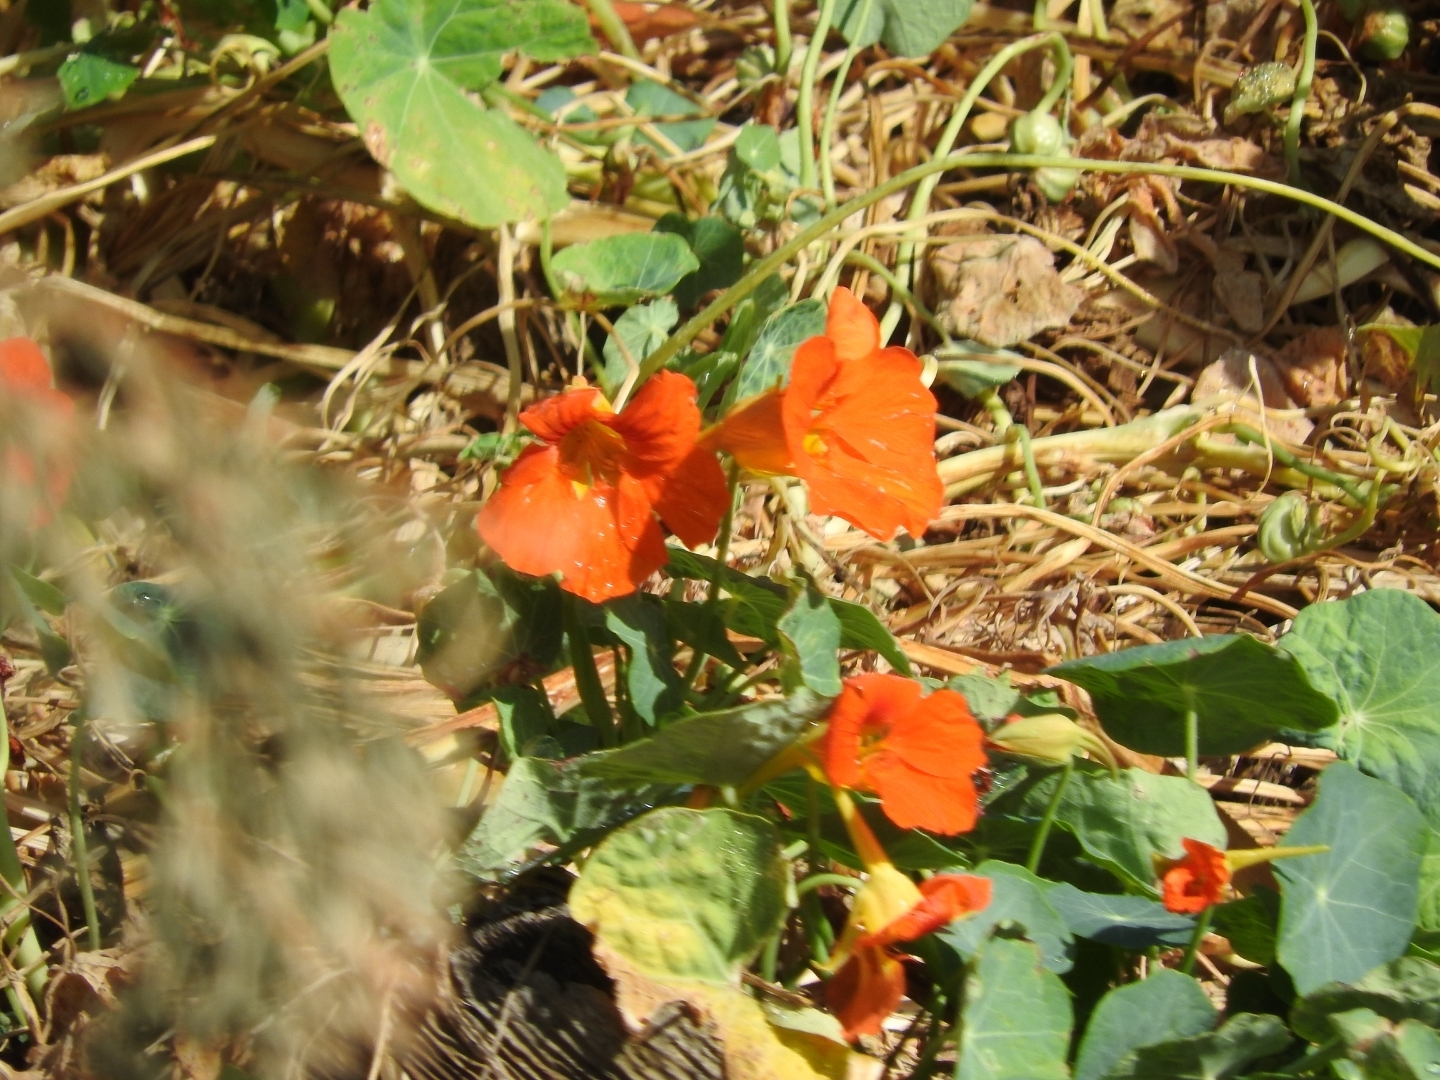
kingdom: Plantae
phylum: Tracheophyta
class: Magnoliopsida
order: Brassicales
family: Tropaeolaceae
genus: Tropaeolum
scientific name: Tropaeolum majus
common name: Nasturtium
